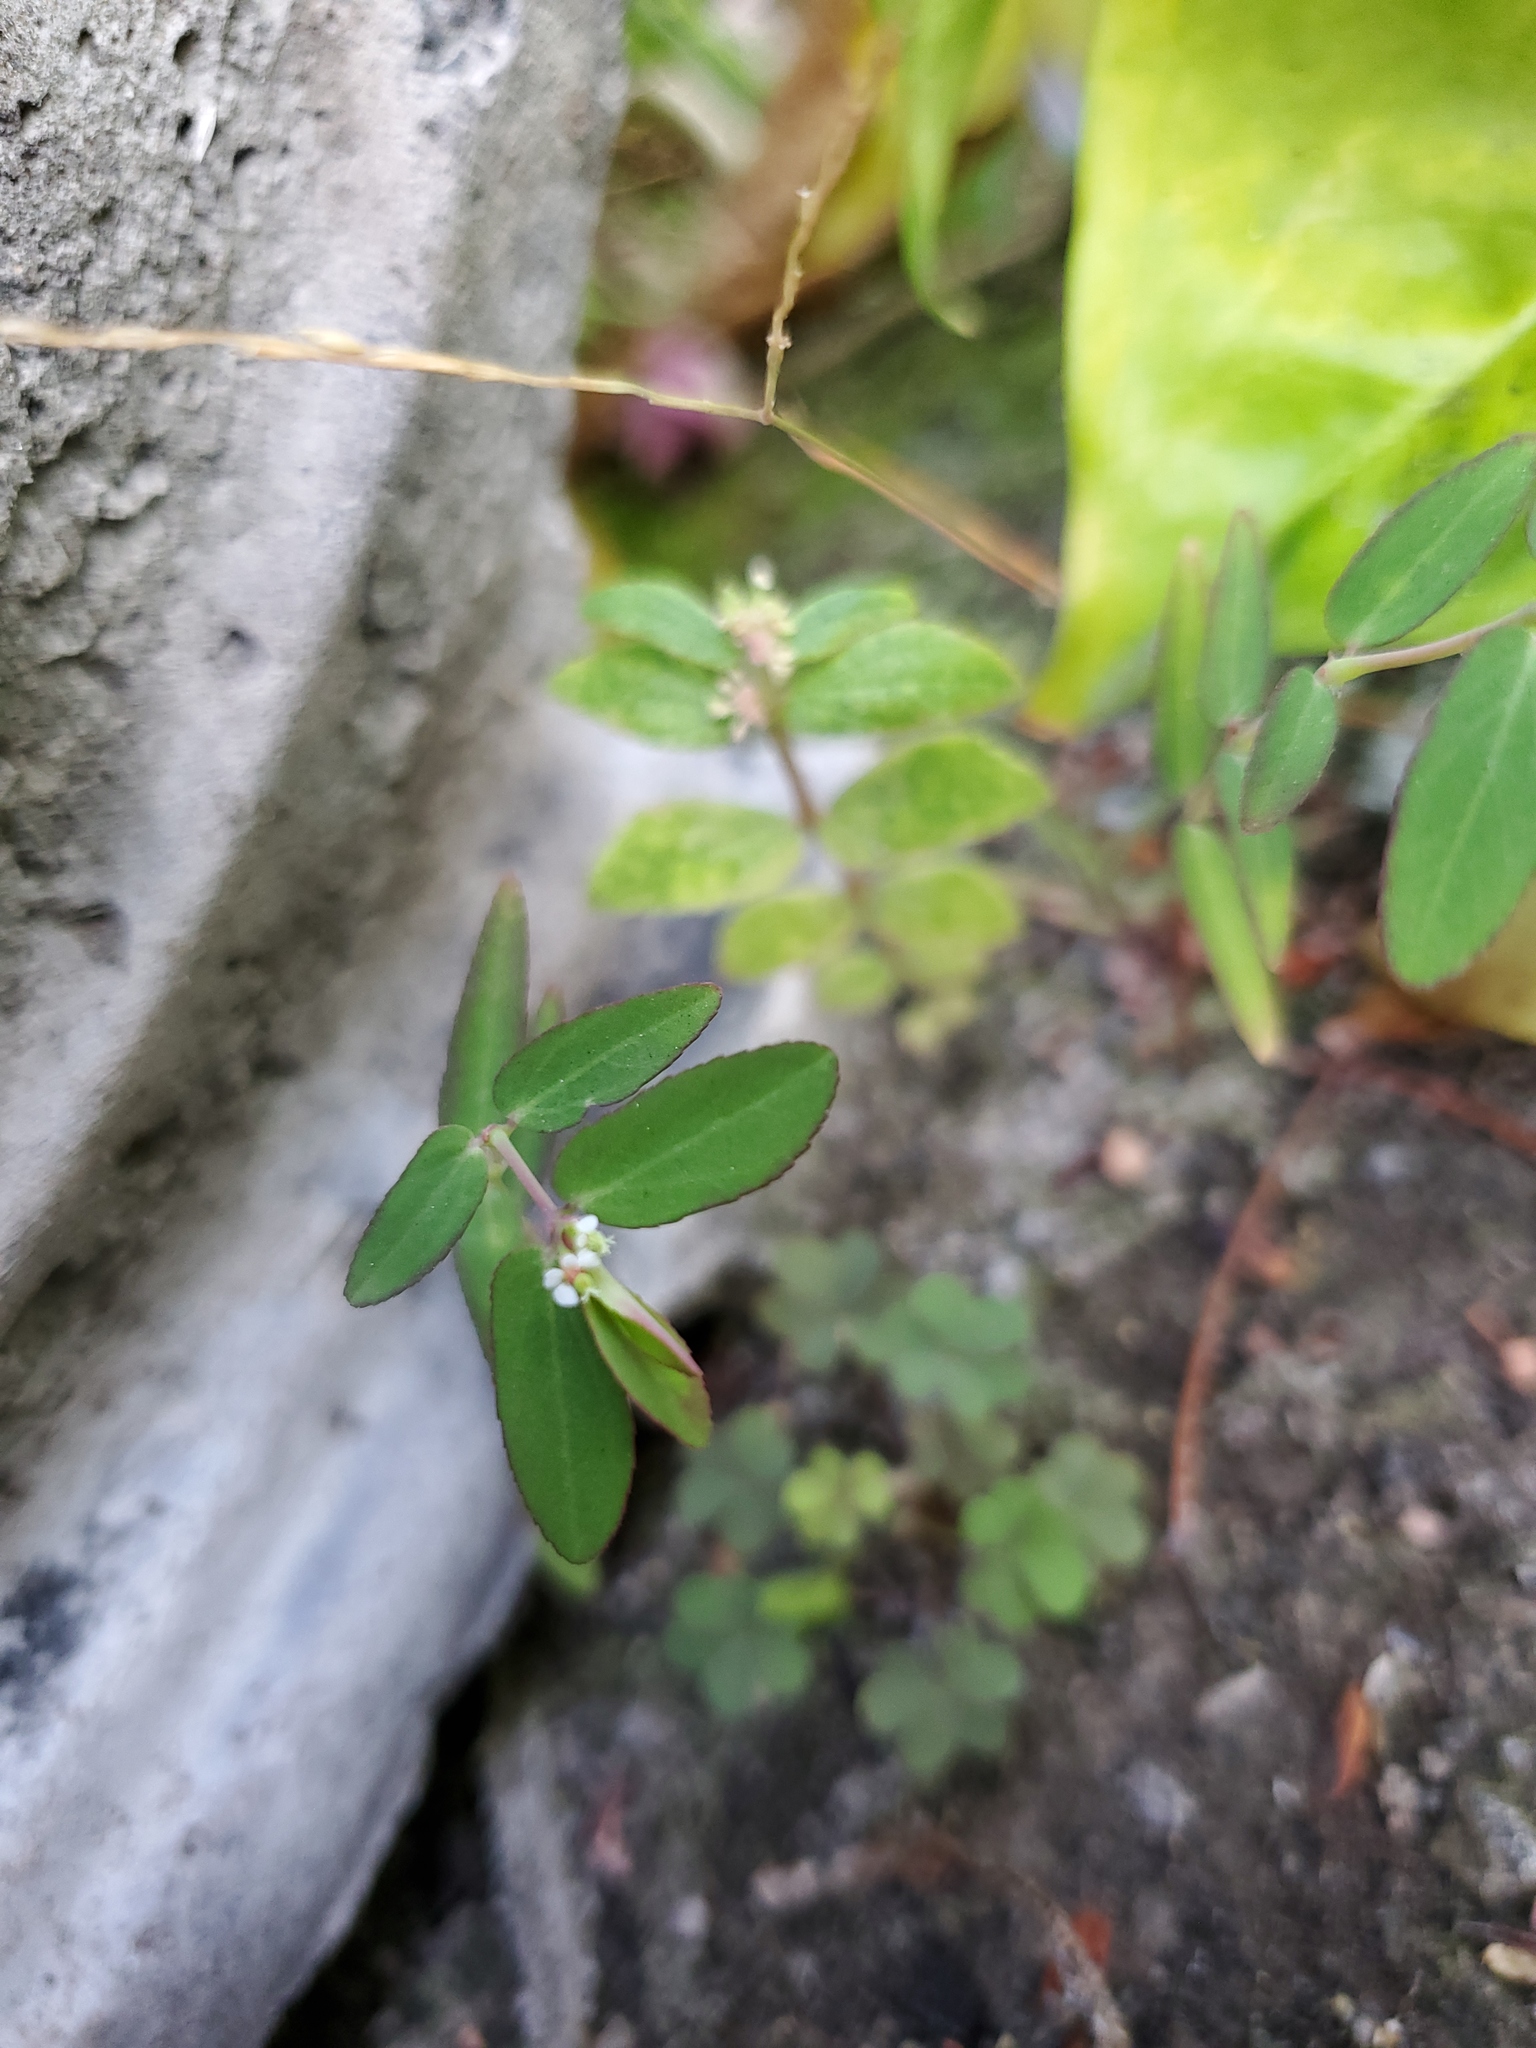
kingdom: Plantae
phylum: Tracheophyta
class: Magnoliopsida
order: Malpighiales
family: Euphorbiaceae
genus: Euphorbia
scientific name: Euphorbia hypericifolia
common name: Graceful sandmat
